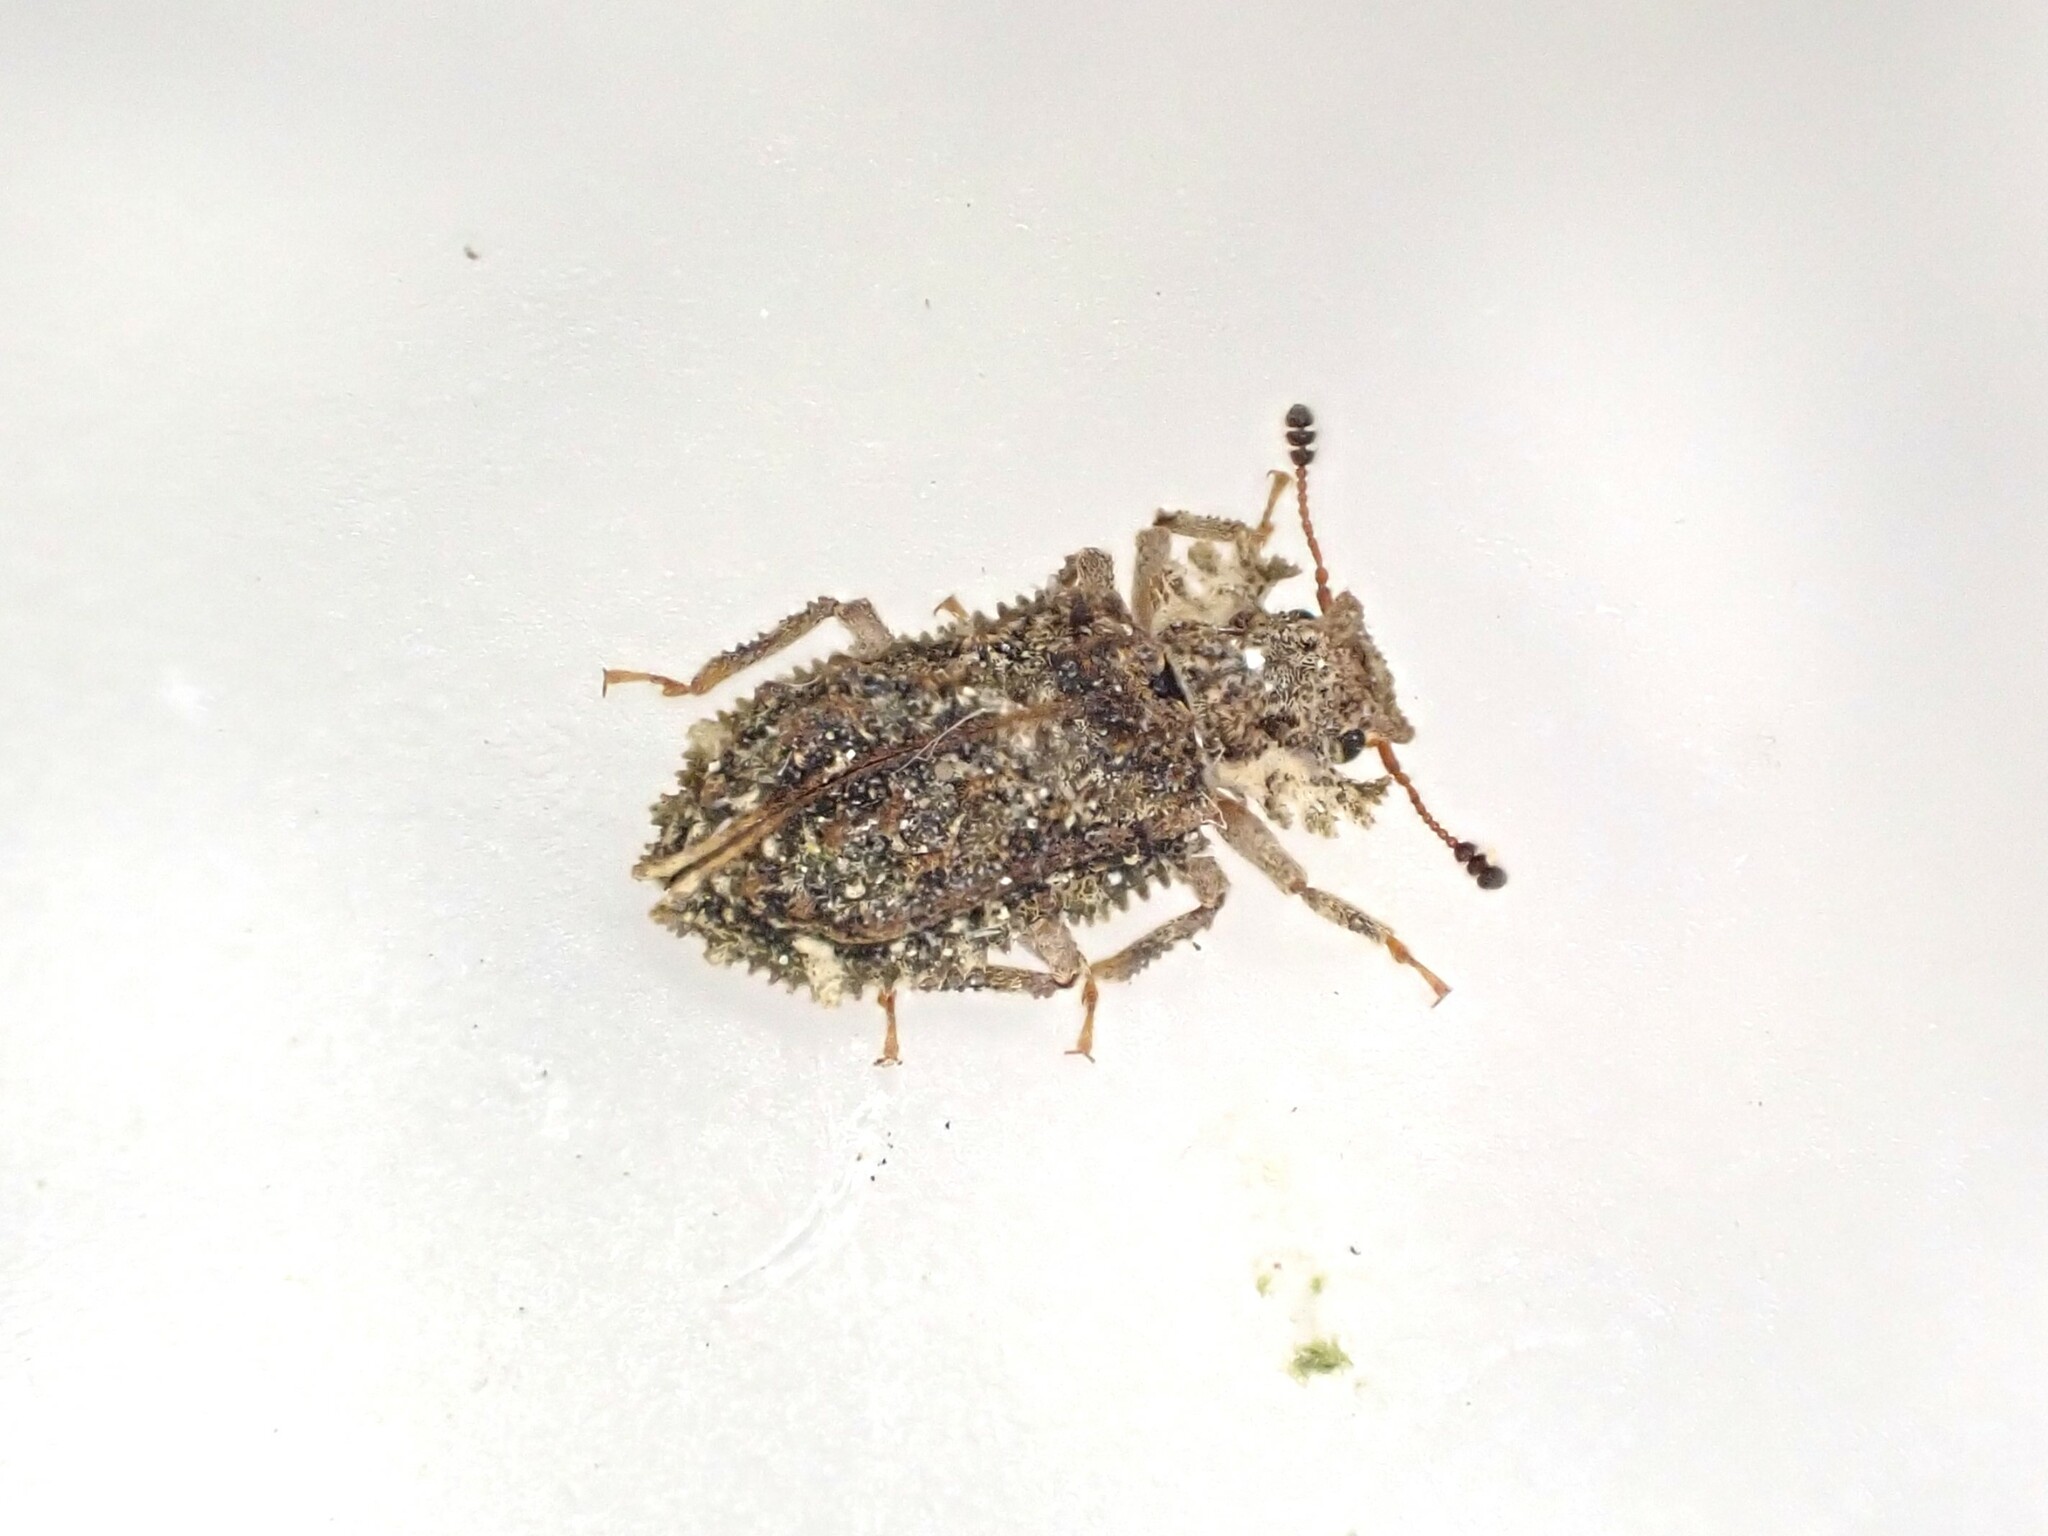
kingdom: Animalia
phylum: Arthropoda
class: Insecta
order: Coleoptera
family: Zopheridae
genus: Tarphiomimus
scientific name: Tarphiomimus indentatus
